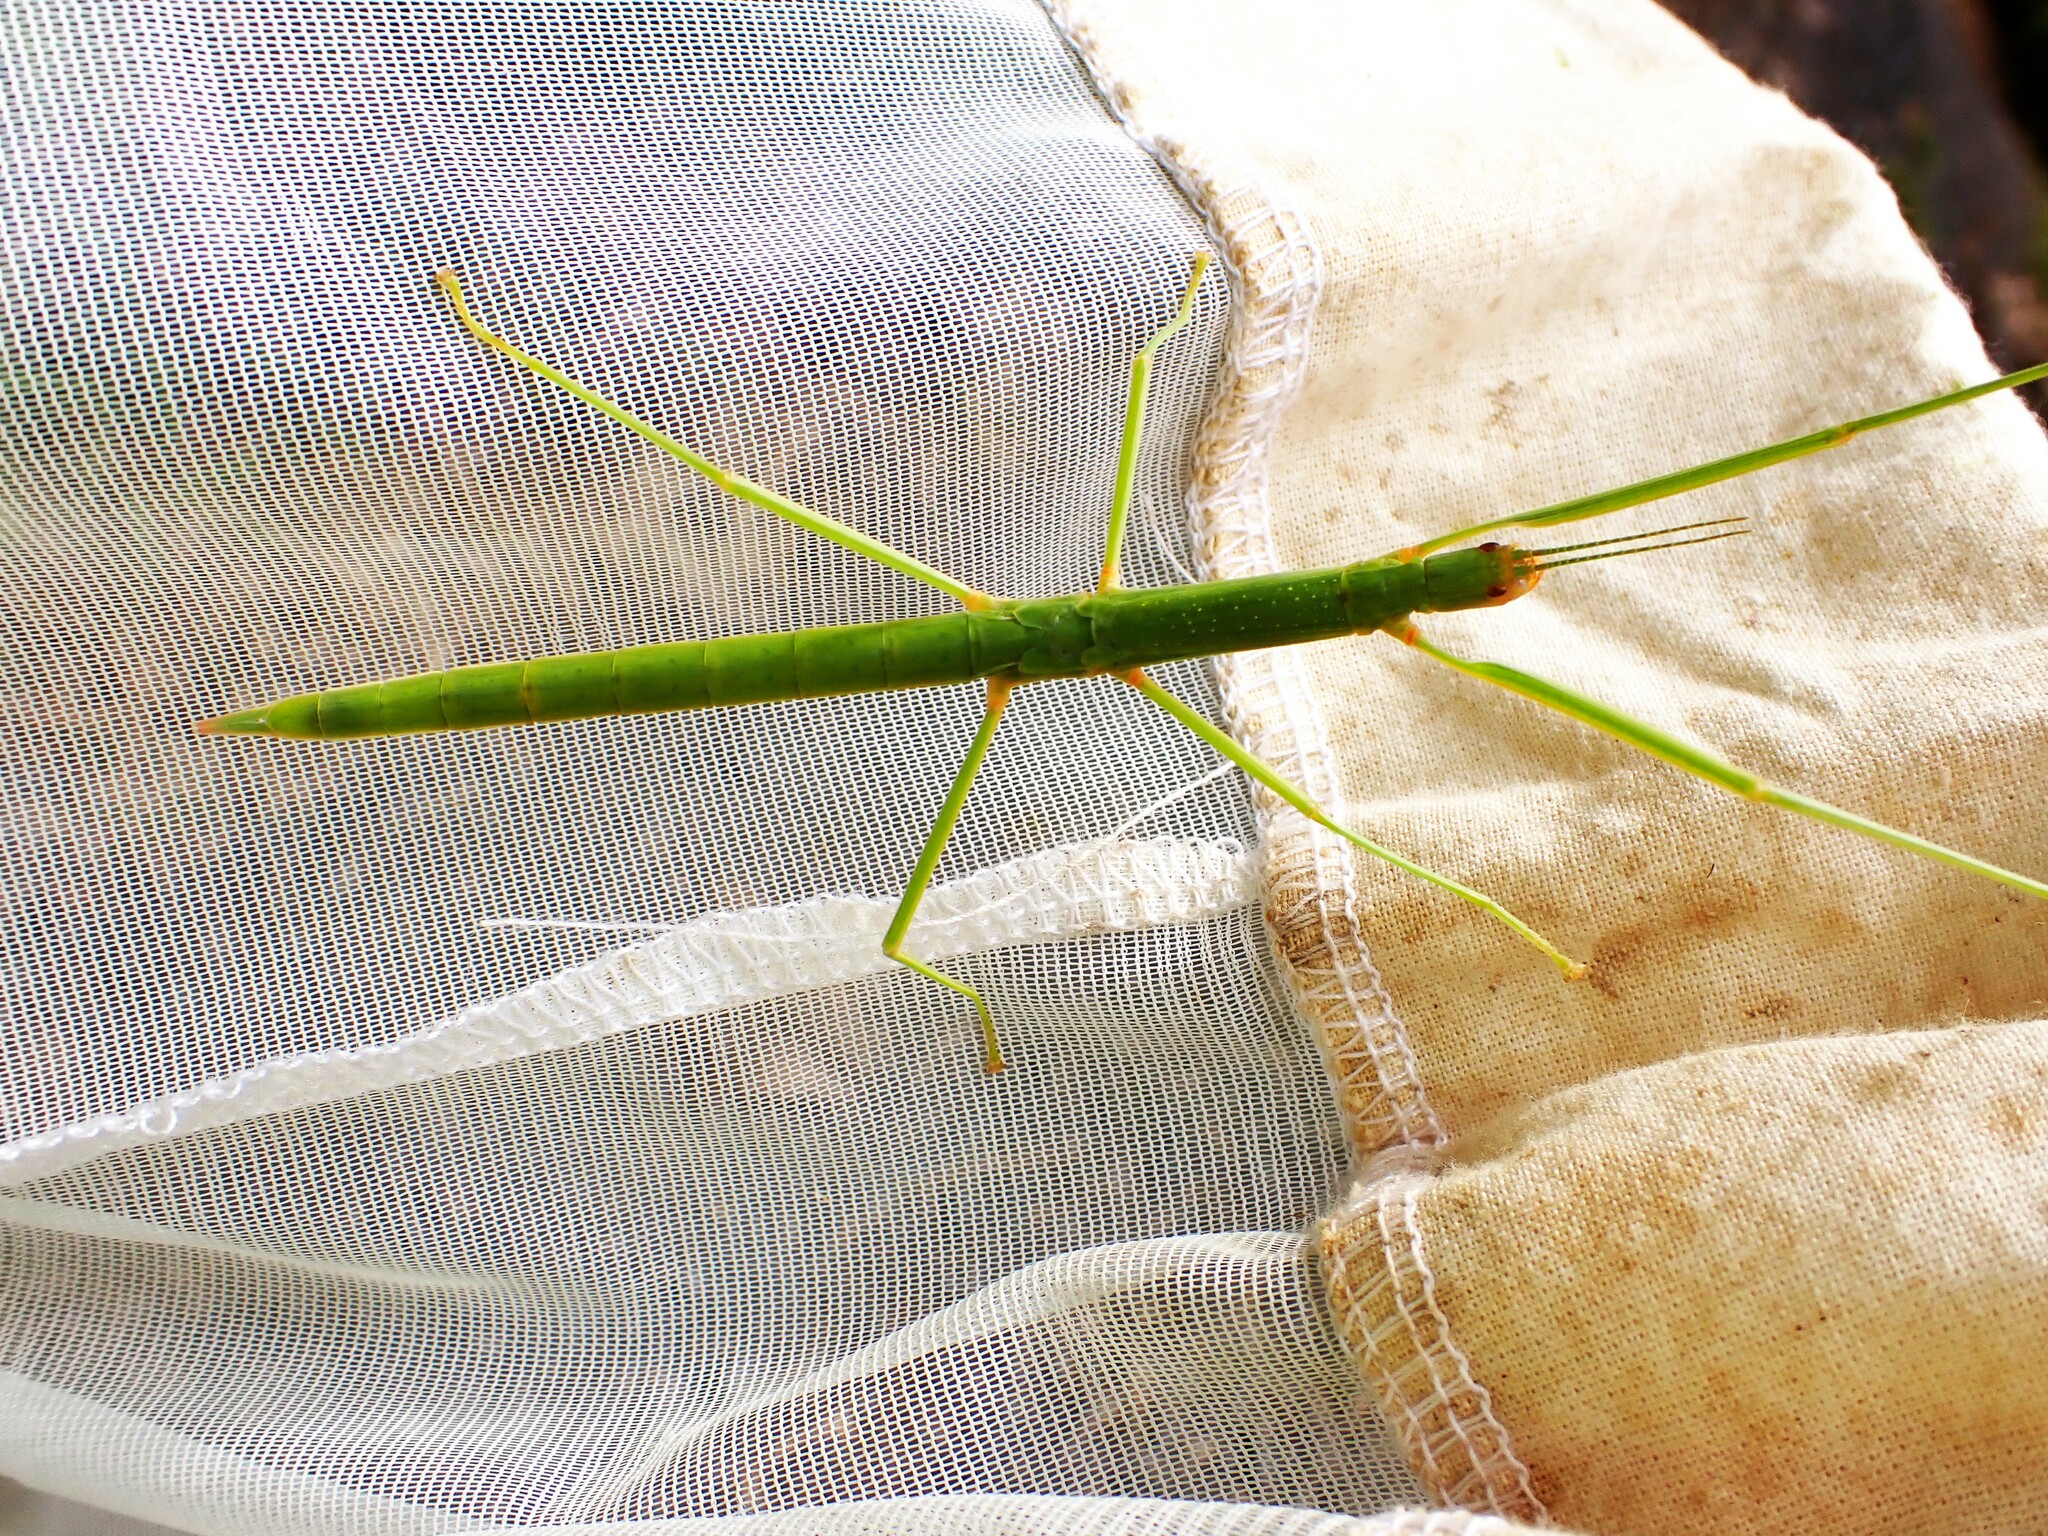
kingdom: Animalia
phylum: Arthropoda
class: Insecta
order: Phasmida
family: Phasmatidae
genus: Graeffea
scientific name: Graeffea crouanii
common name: Coconut stick insect
